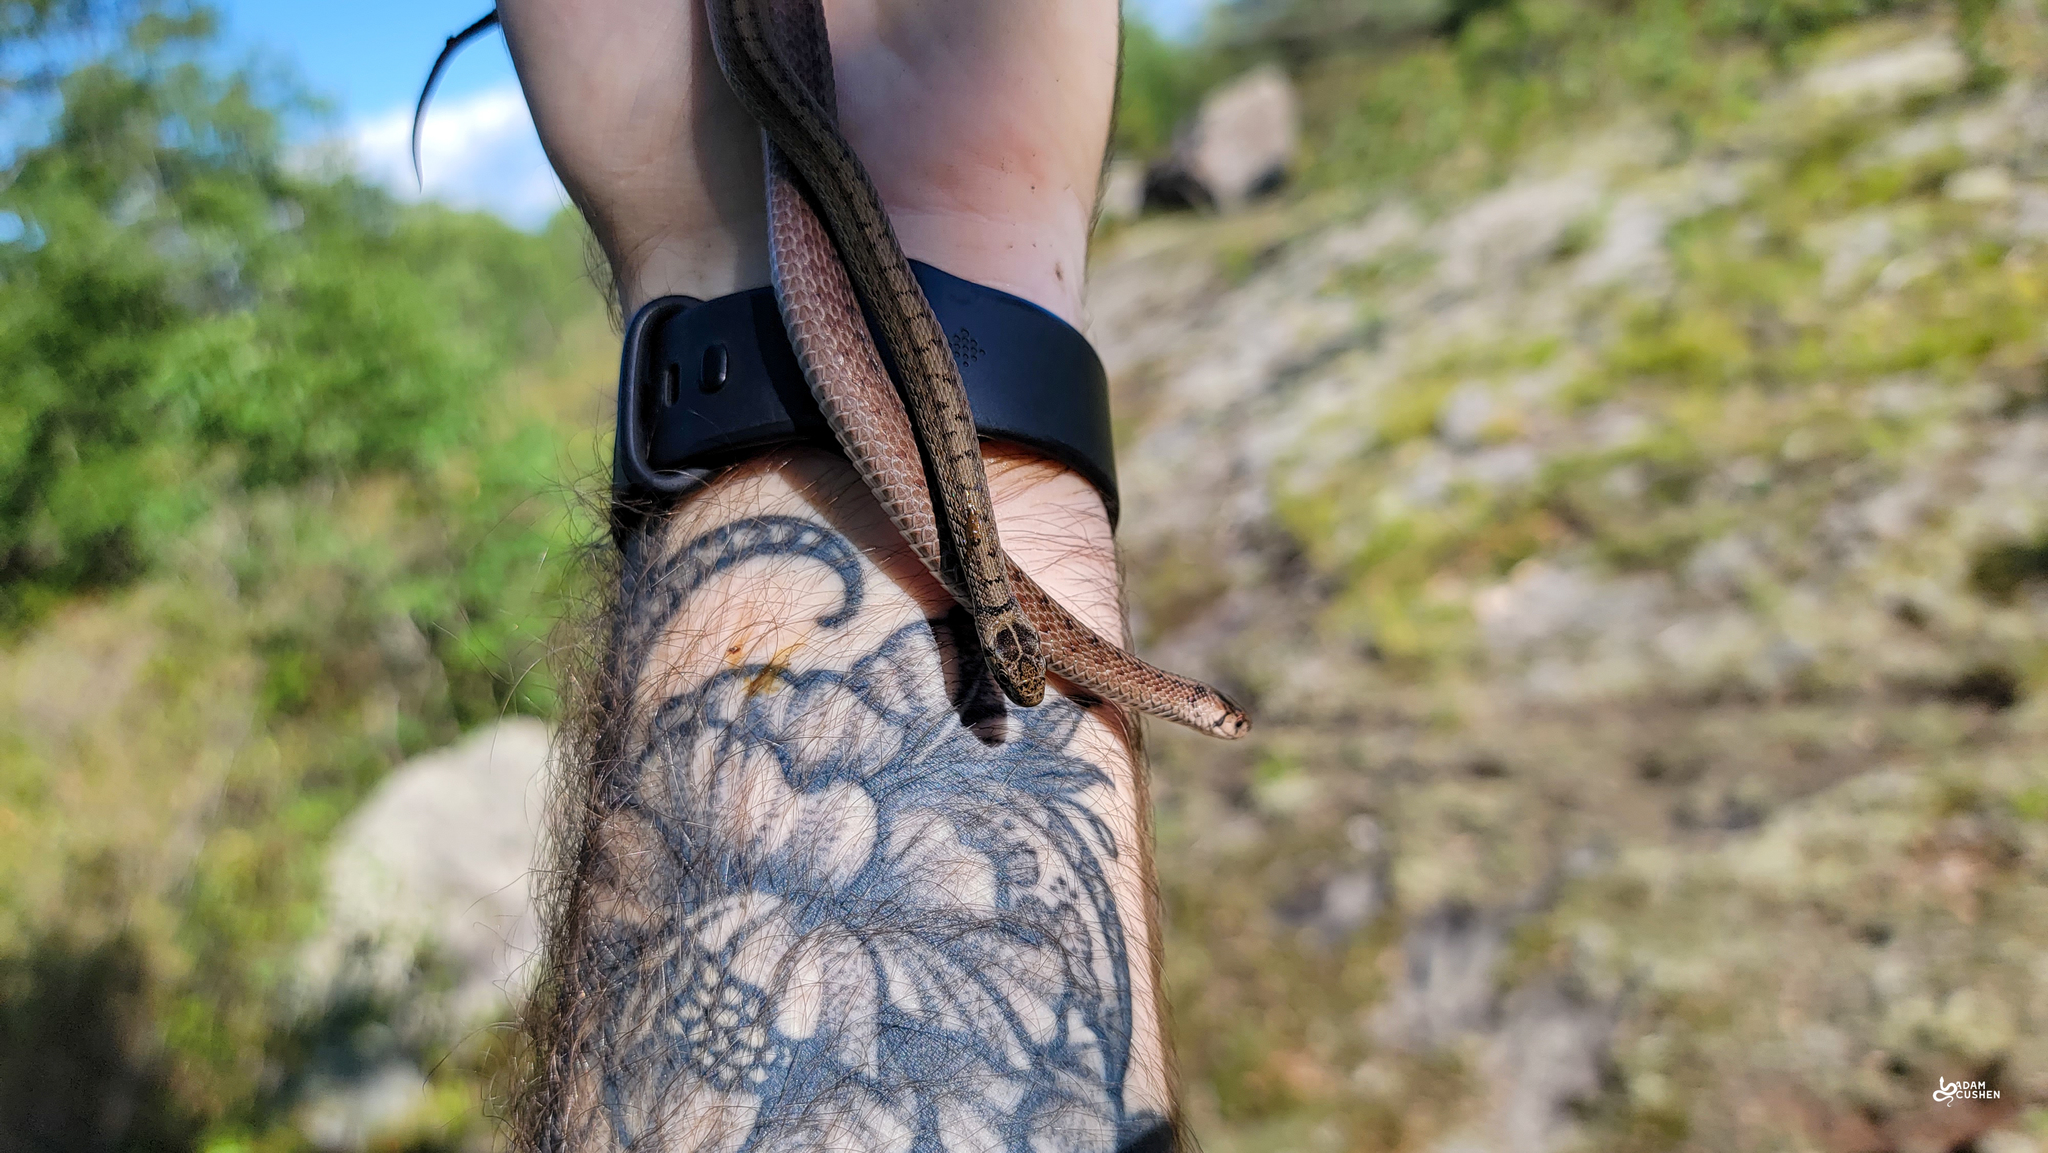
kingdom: Animalia
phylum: Chordata
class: Squamata
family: Colubridae
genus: Storeria
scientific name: Storeria dekayi
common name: (dekay’s) brown snake
